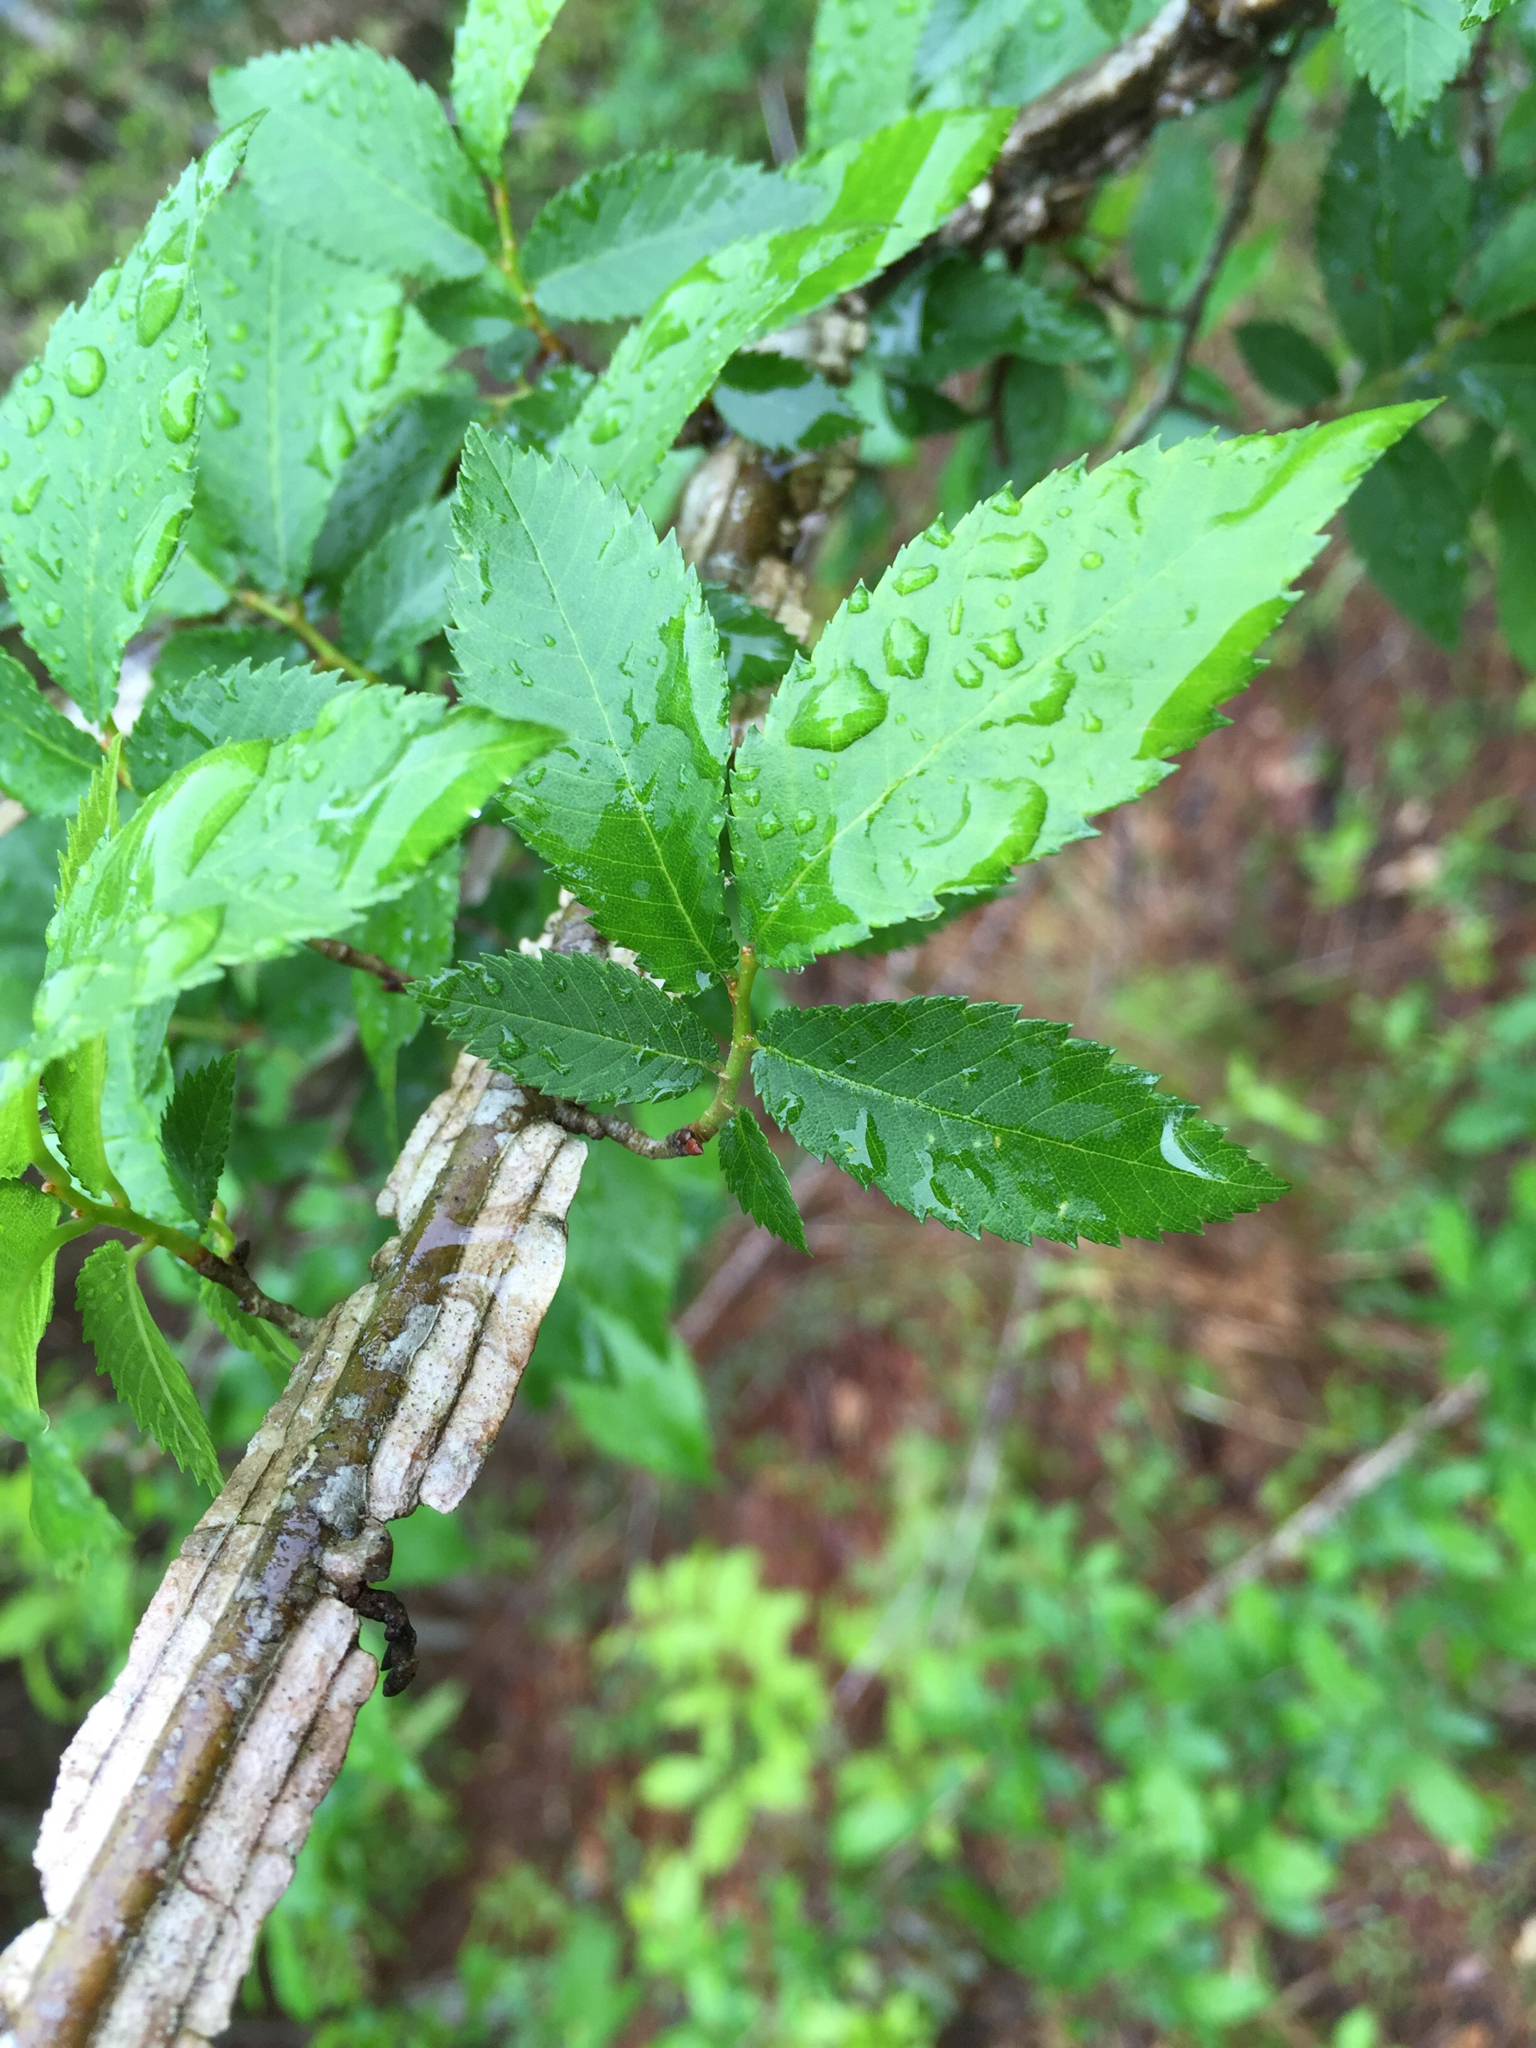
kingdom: Plantae
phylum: Tracheophyta
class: Magnoliopsida
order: Rosales
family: Ulmaceae
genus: Ulmus
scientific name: Ulmus alata
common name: Winged elm
